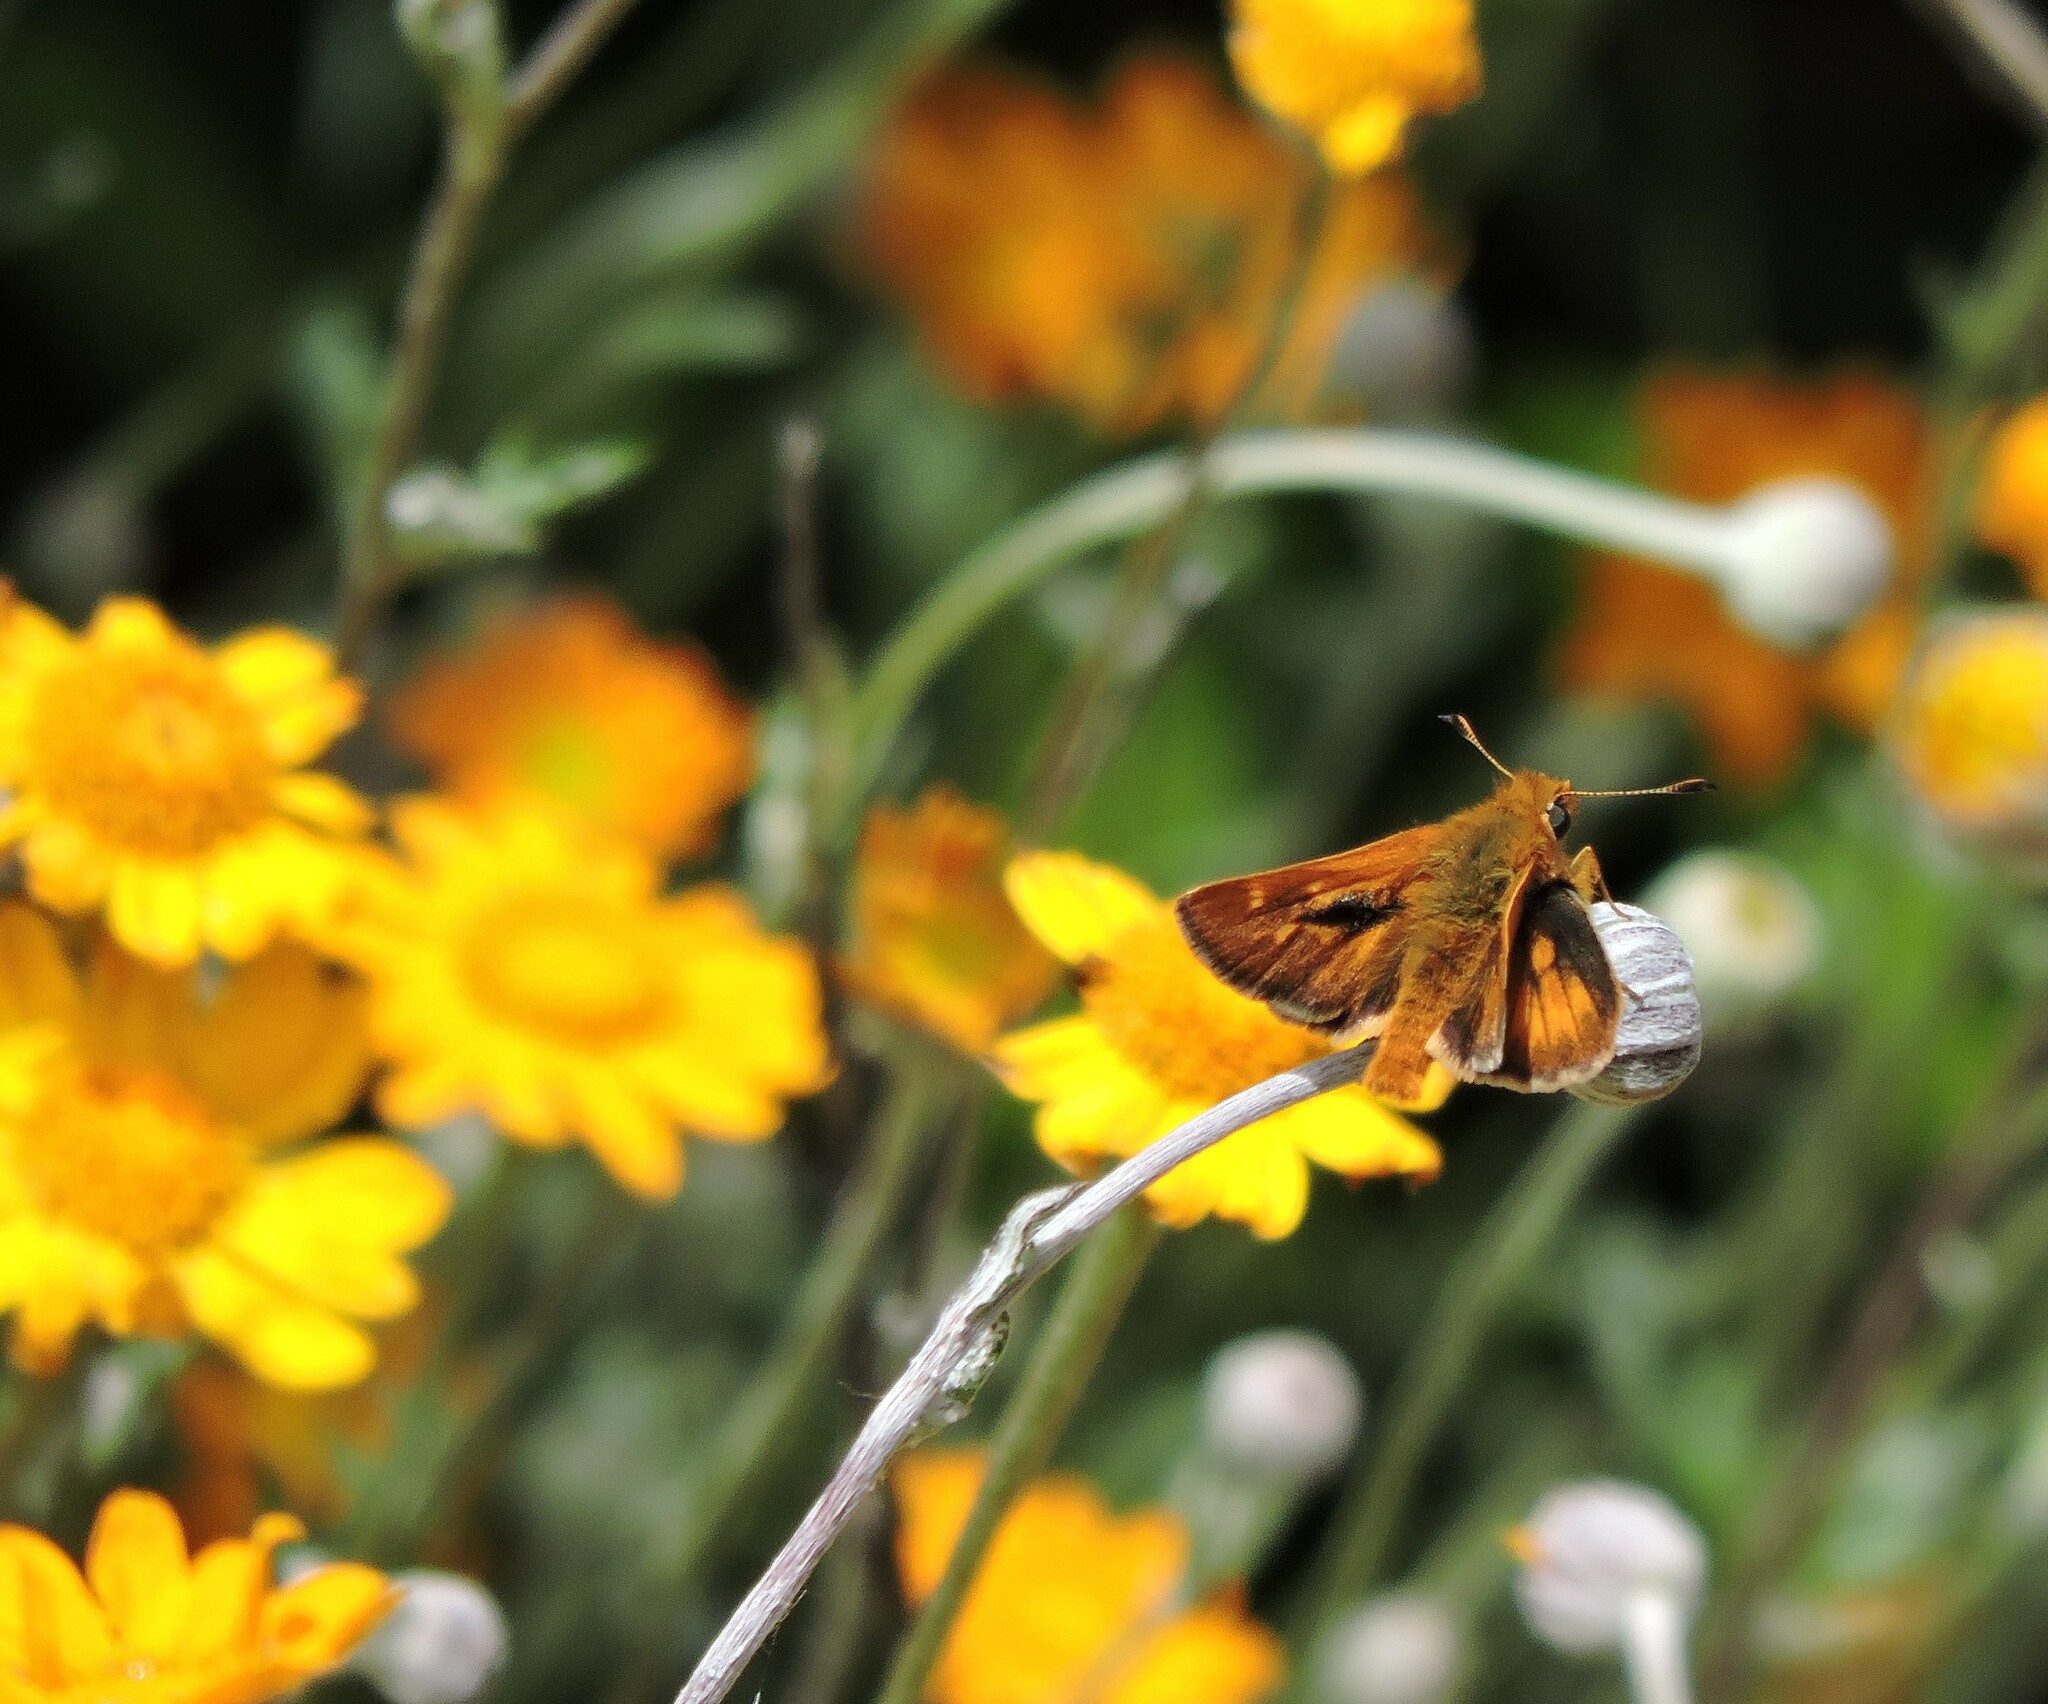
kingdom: Animalia
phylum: Arthropoda
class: Insecta
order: Lepidoptera
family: Hesperiidae
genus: Ochlodes
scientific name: Ochlodes agricola
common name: Rural skipper
